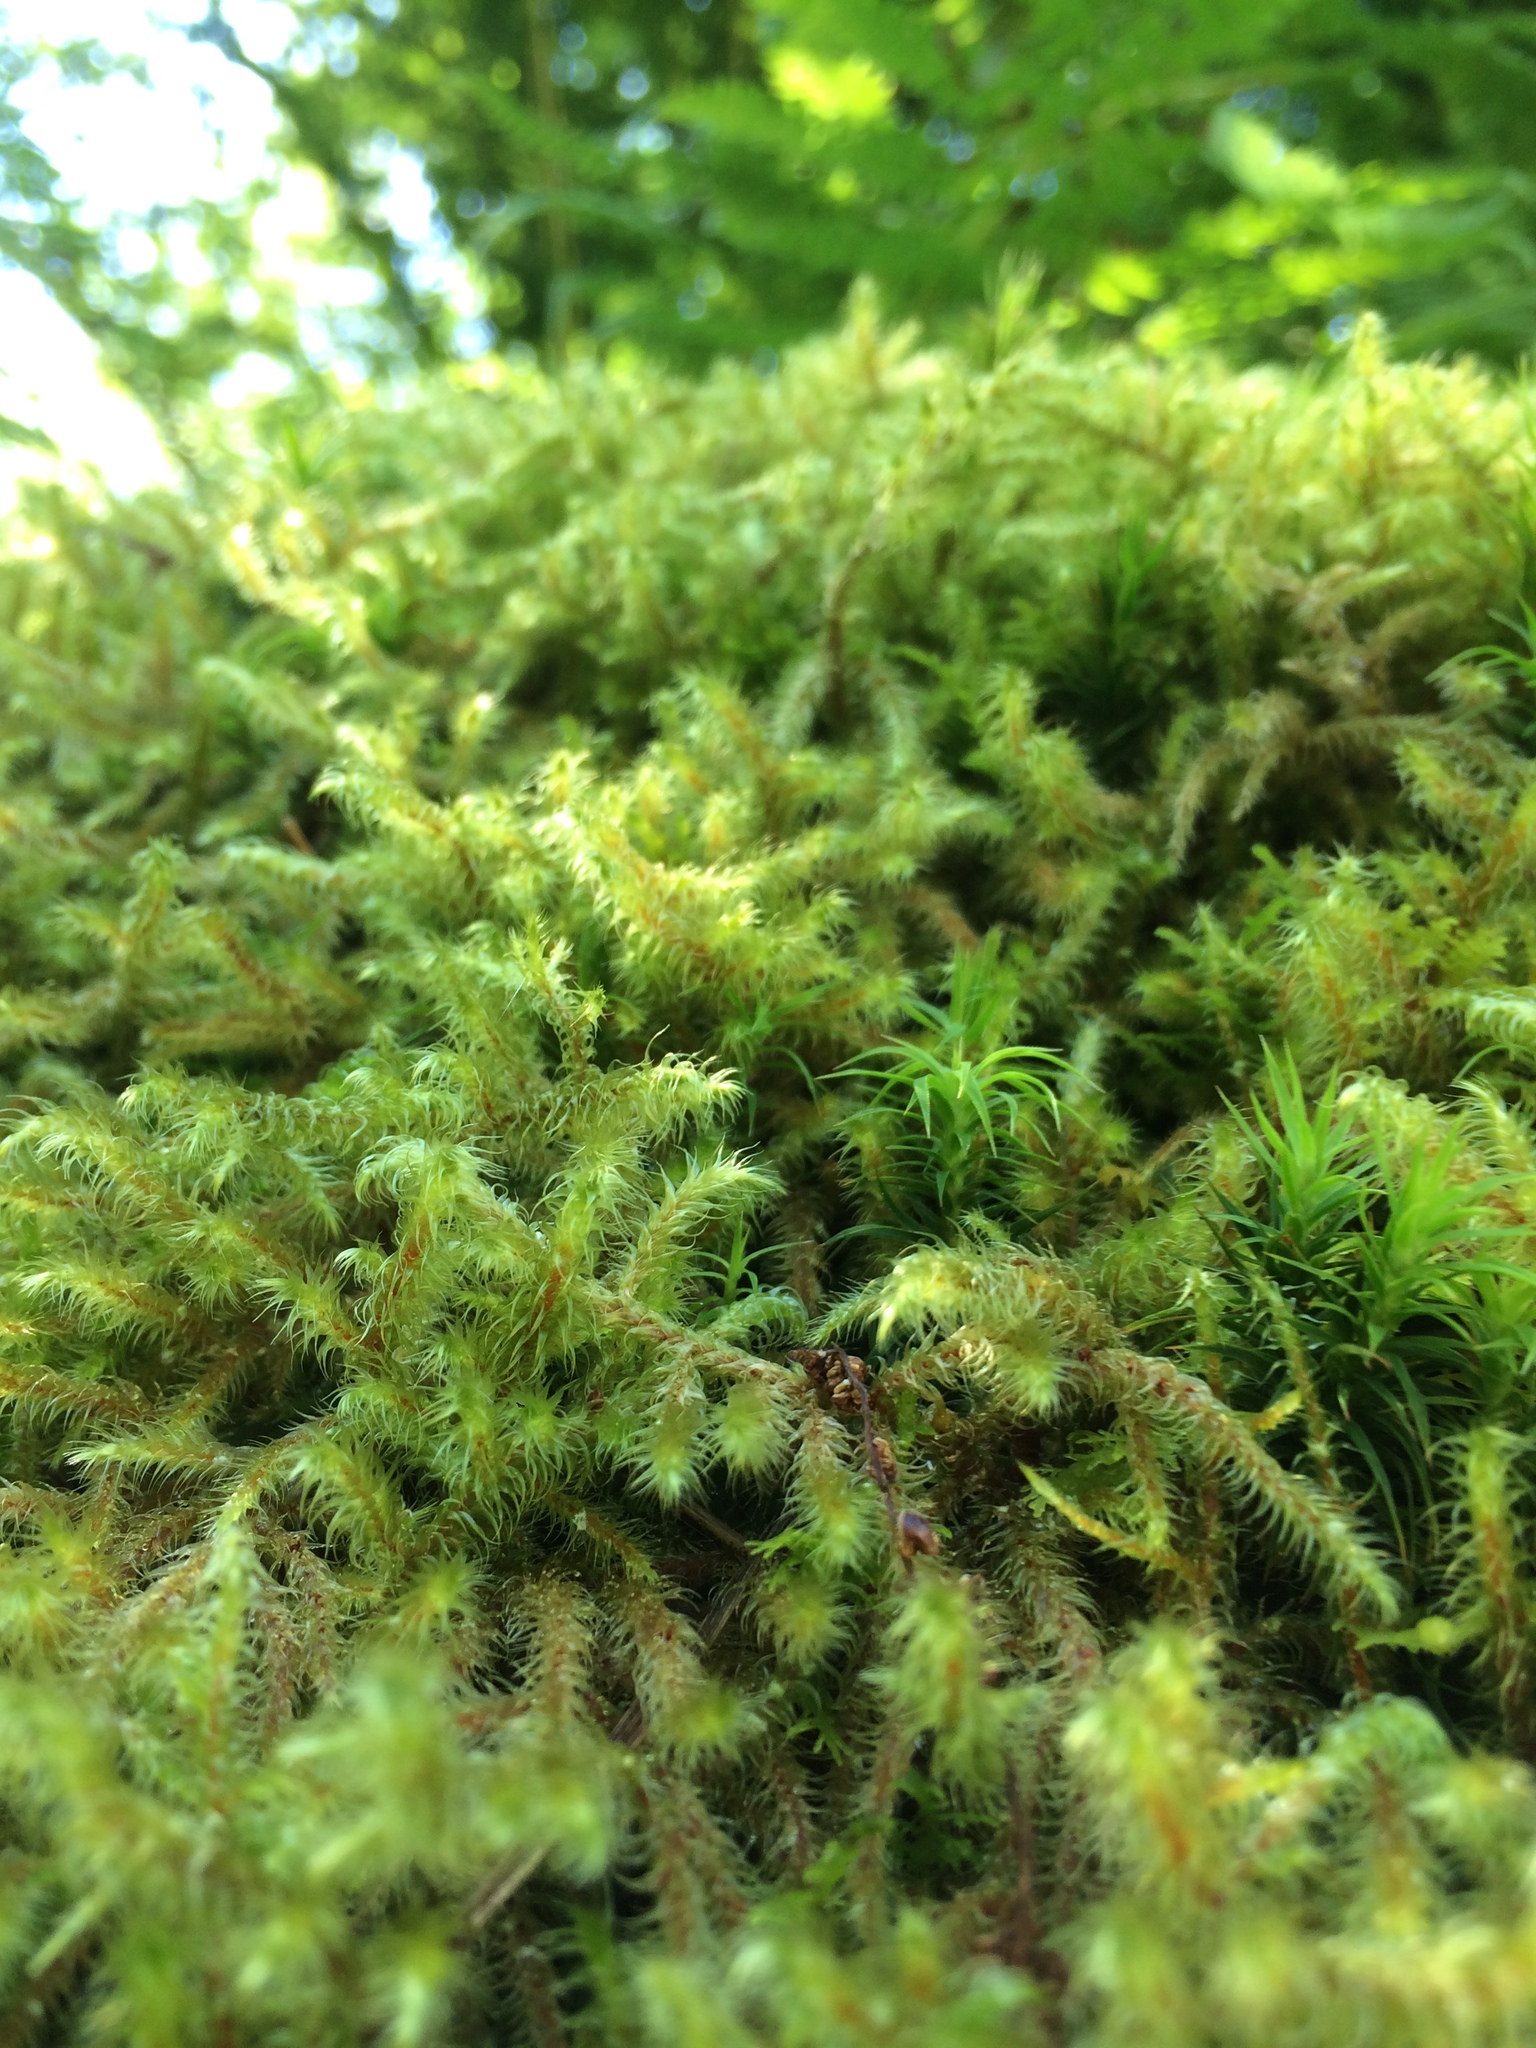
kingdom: Plantae
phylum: Bryophyta
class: Bryopsida
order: Hypnales
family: Hylocomiaceae
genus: Hylocomiadelphus
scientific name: Hylocomiadelphus triquetrus
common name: Rough goose neck moss
